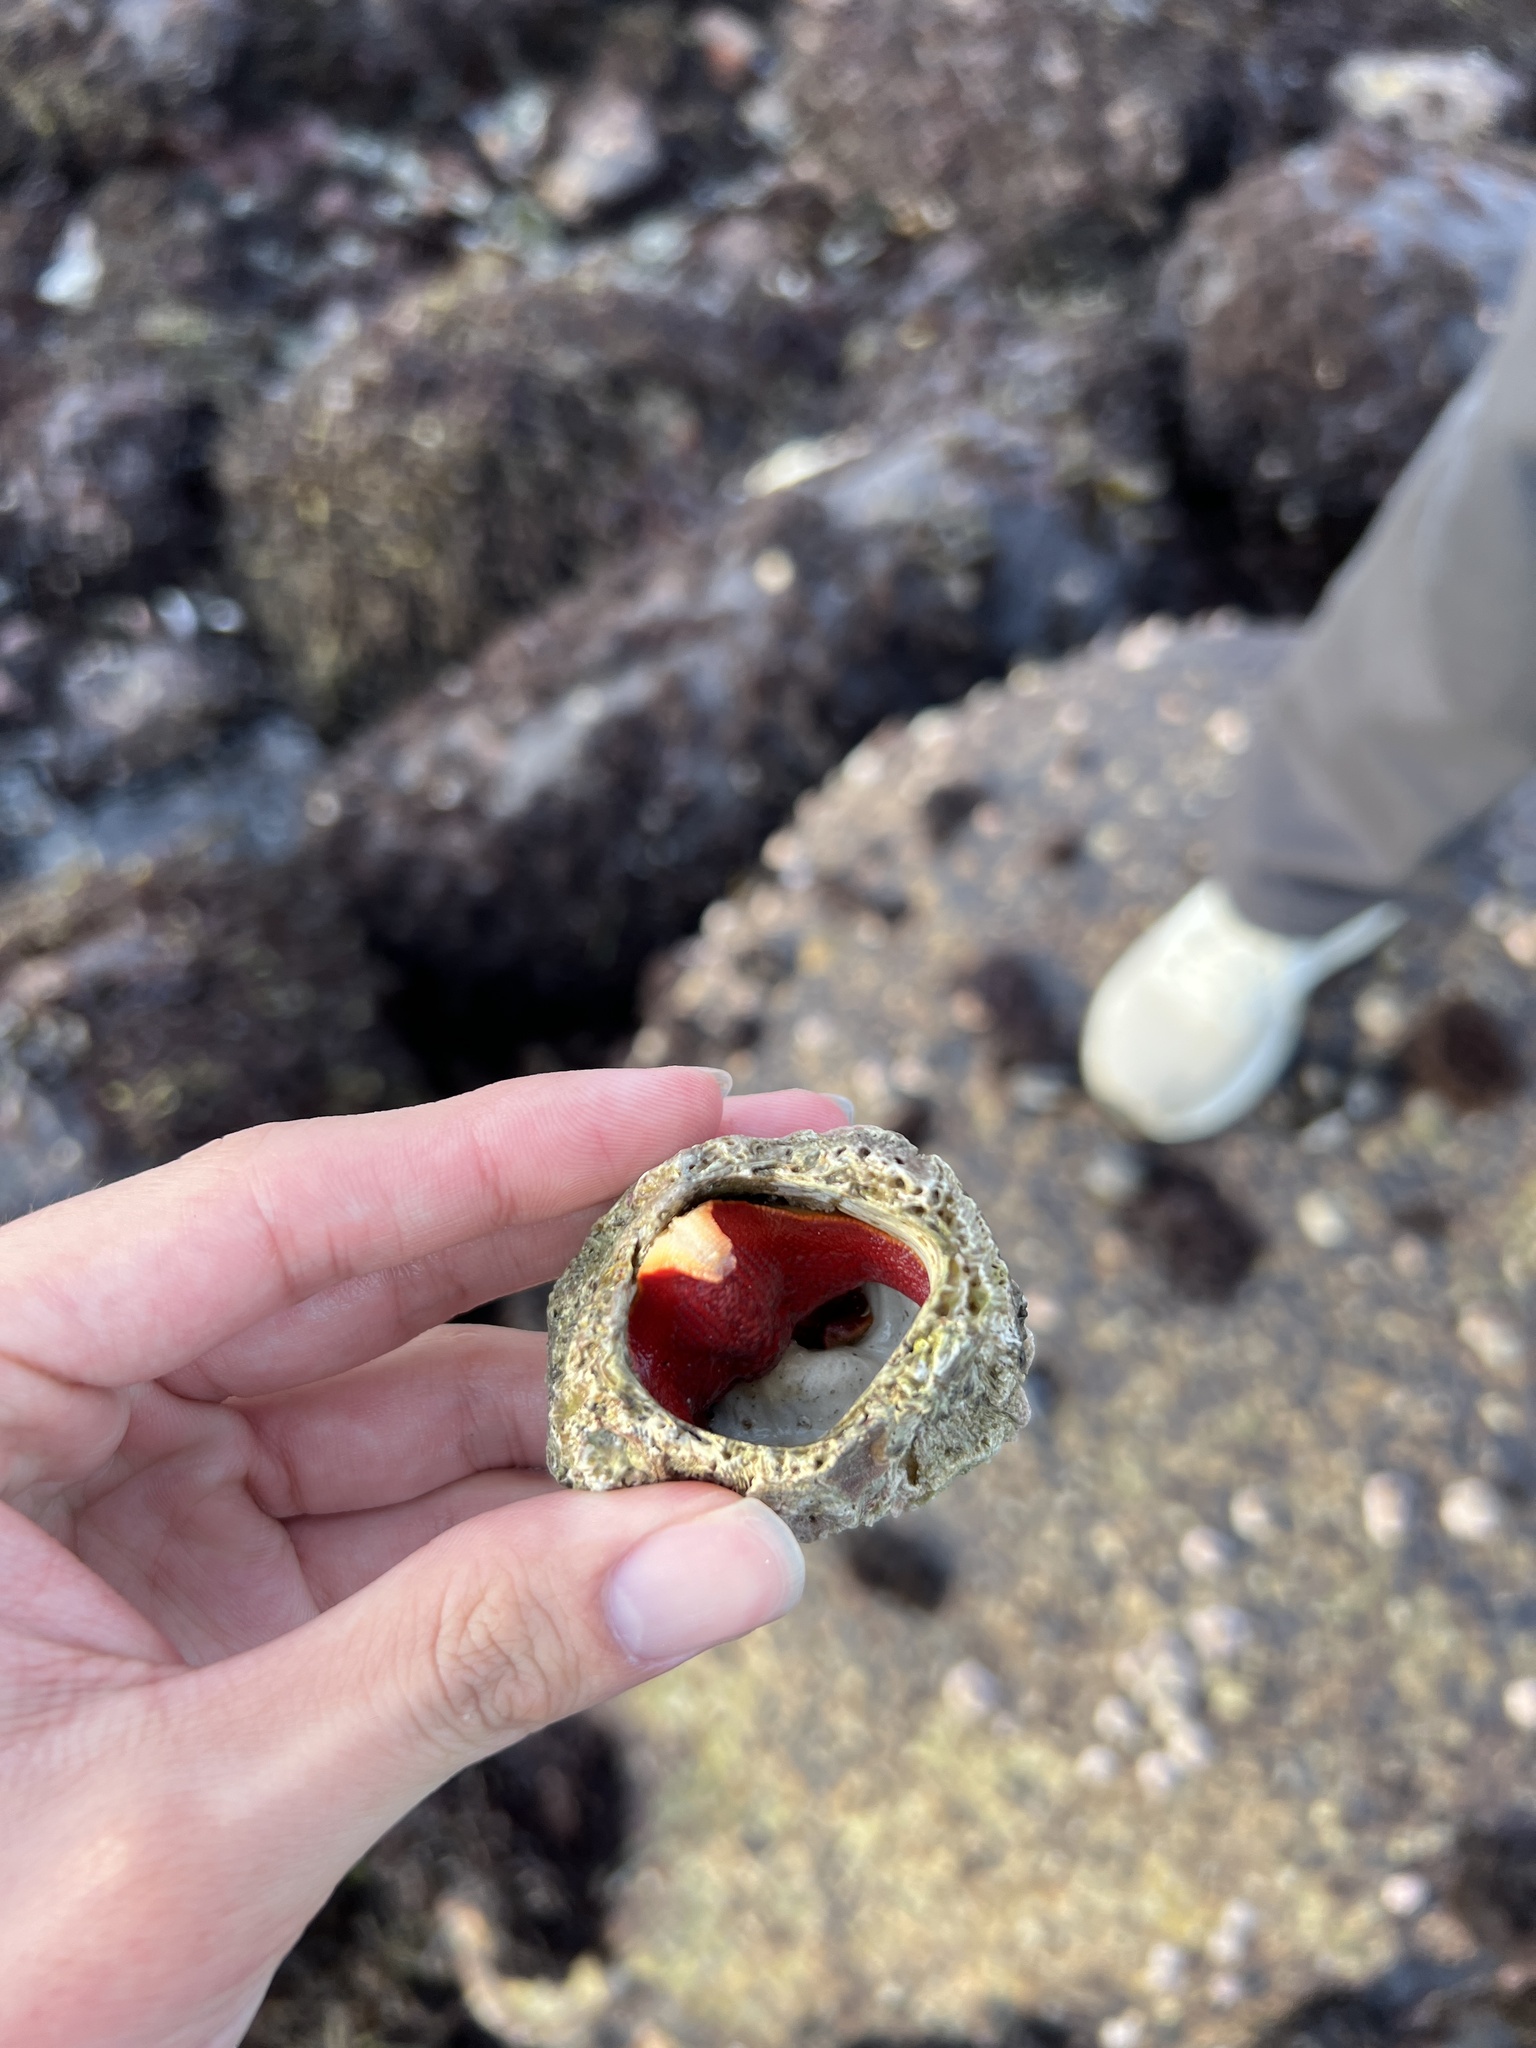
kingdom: Animalia
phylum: Echinodermata
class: Asteroidea
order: Valvatida
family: Asterinidae
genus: Patiria
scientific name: Patiria miniata
